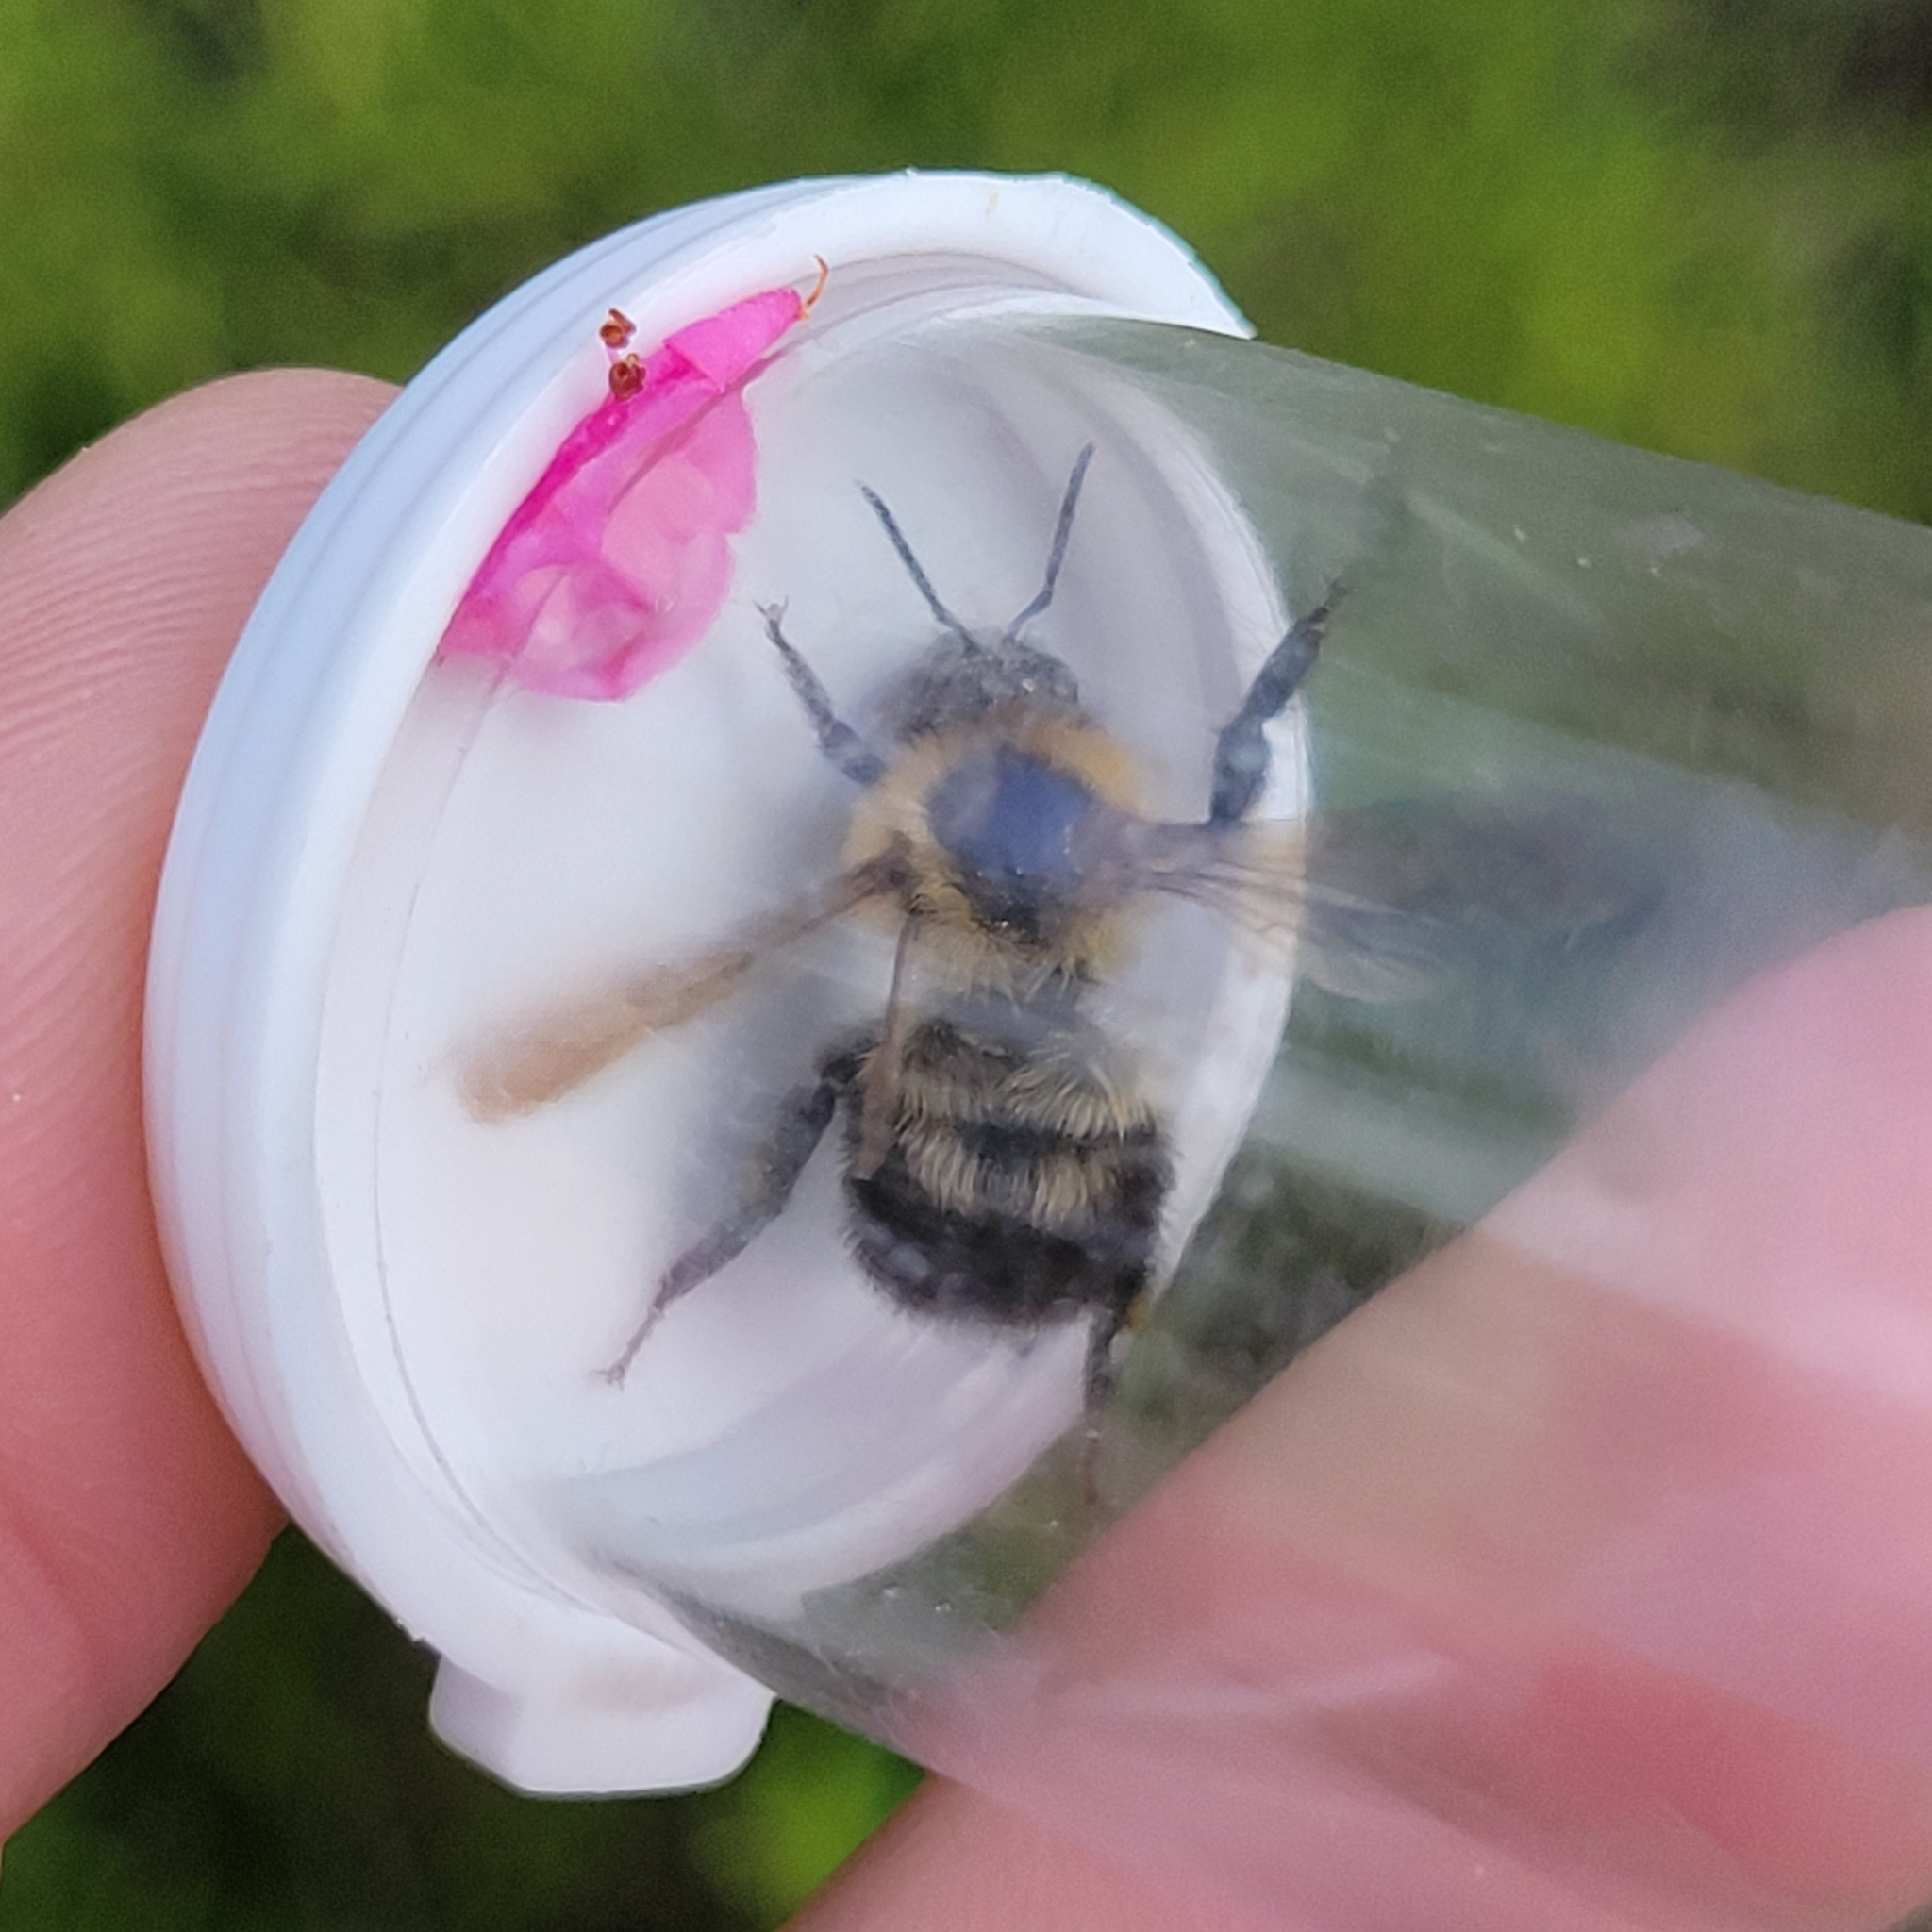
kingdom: Animalia
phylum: Arthropoda
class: Insecta
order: Hymenoptera
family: Apidae
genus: Bombus
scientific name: Bombus bimaculatus
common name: Two-spotted bumble bee
